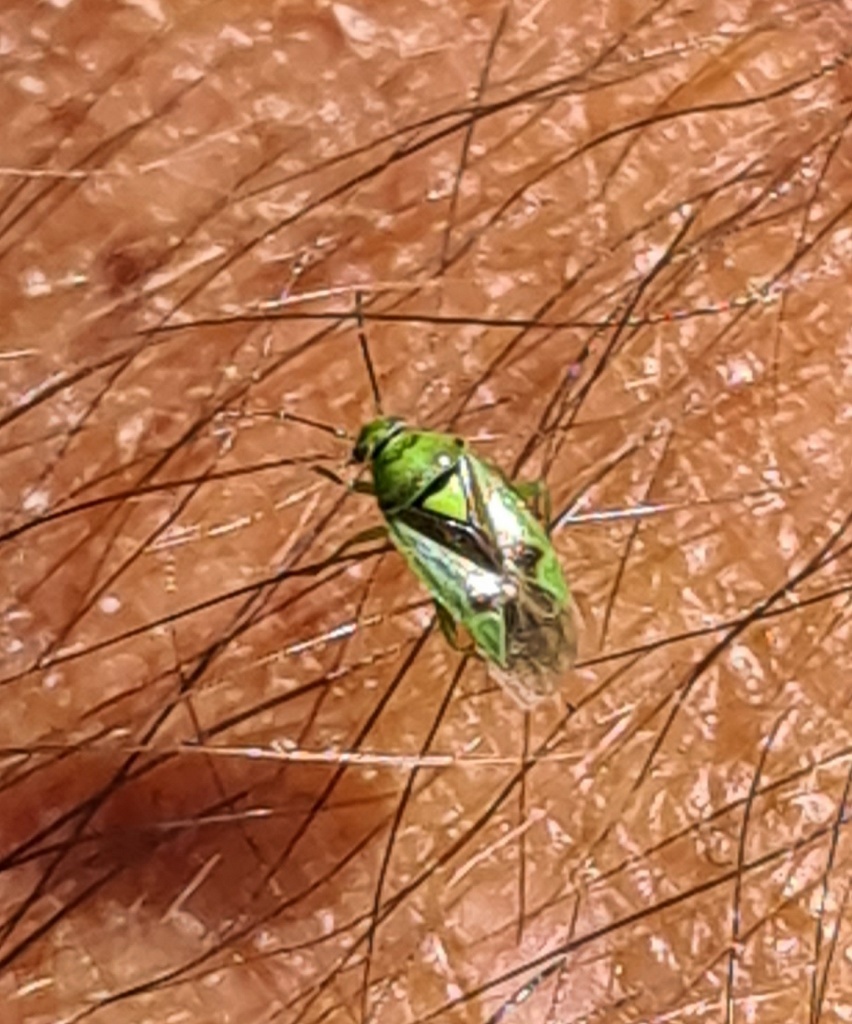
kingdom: Animalia
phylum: Arthropoda
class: Insecta
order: Hemiptera
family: Miridae
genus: Orthops
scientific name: Orthops campestris
